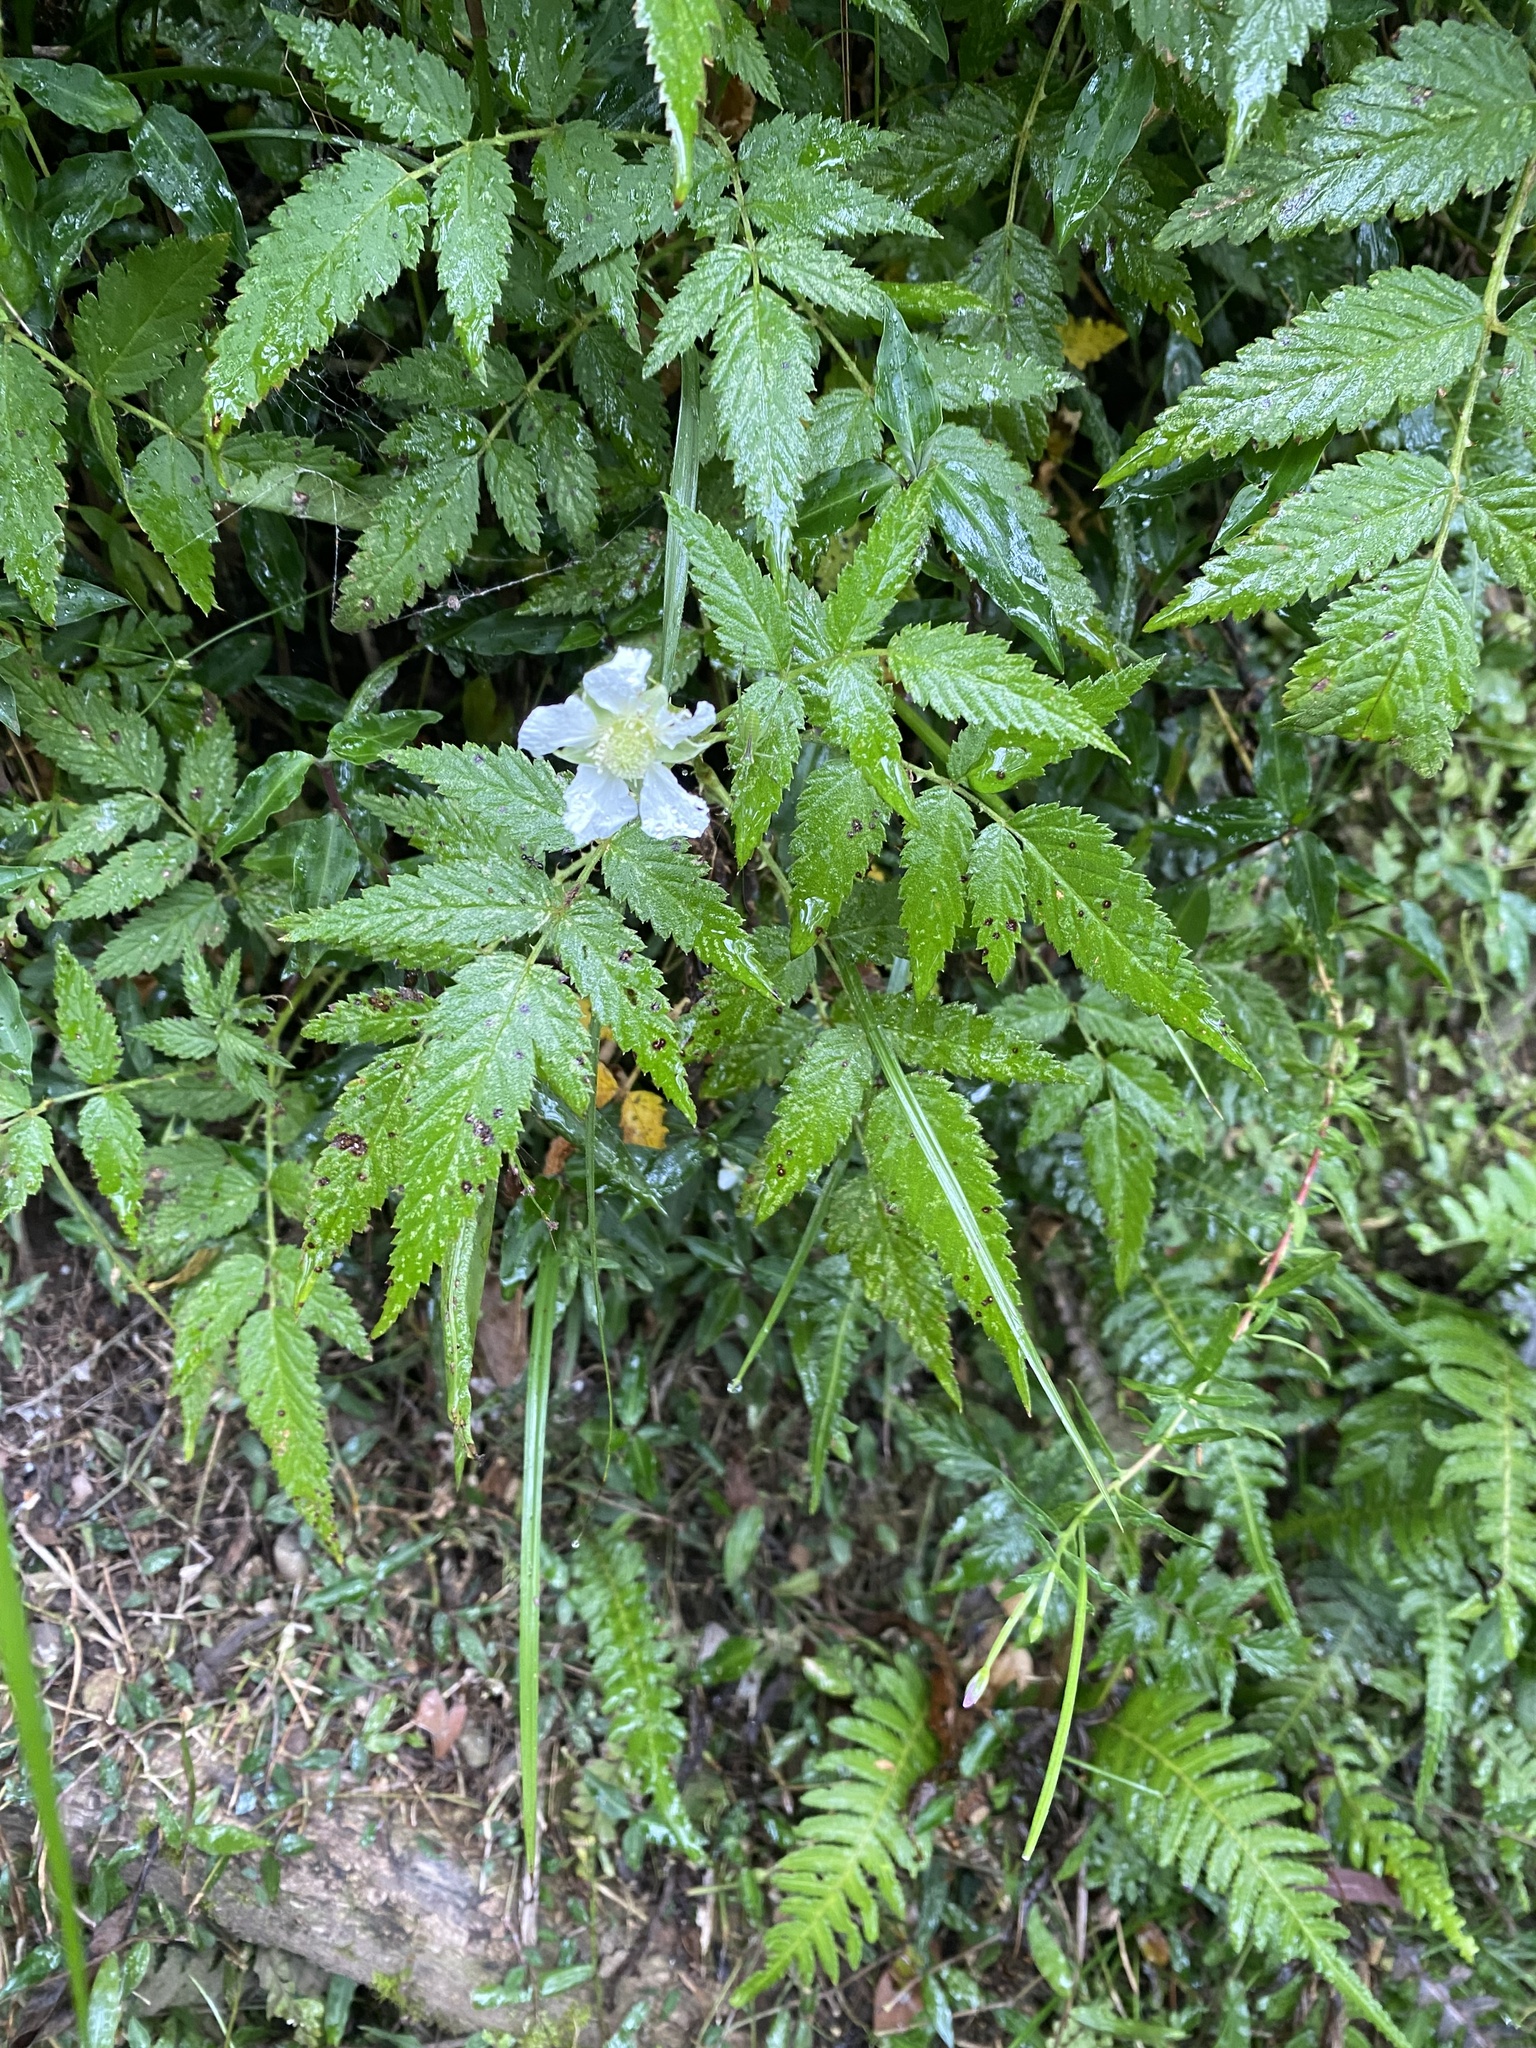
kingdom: Plantae
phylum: Tracheophyta
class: Magnoliopsida
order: Rosales
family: Rosaceae
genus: Rubus
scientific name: Rubus rosifolius
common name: Roseleaf raspberry
